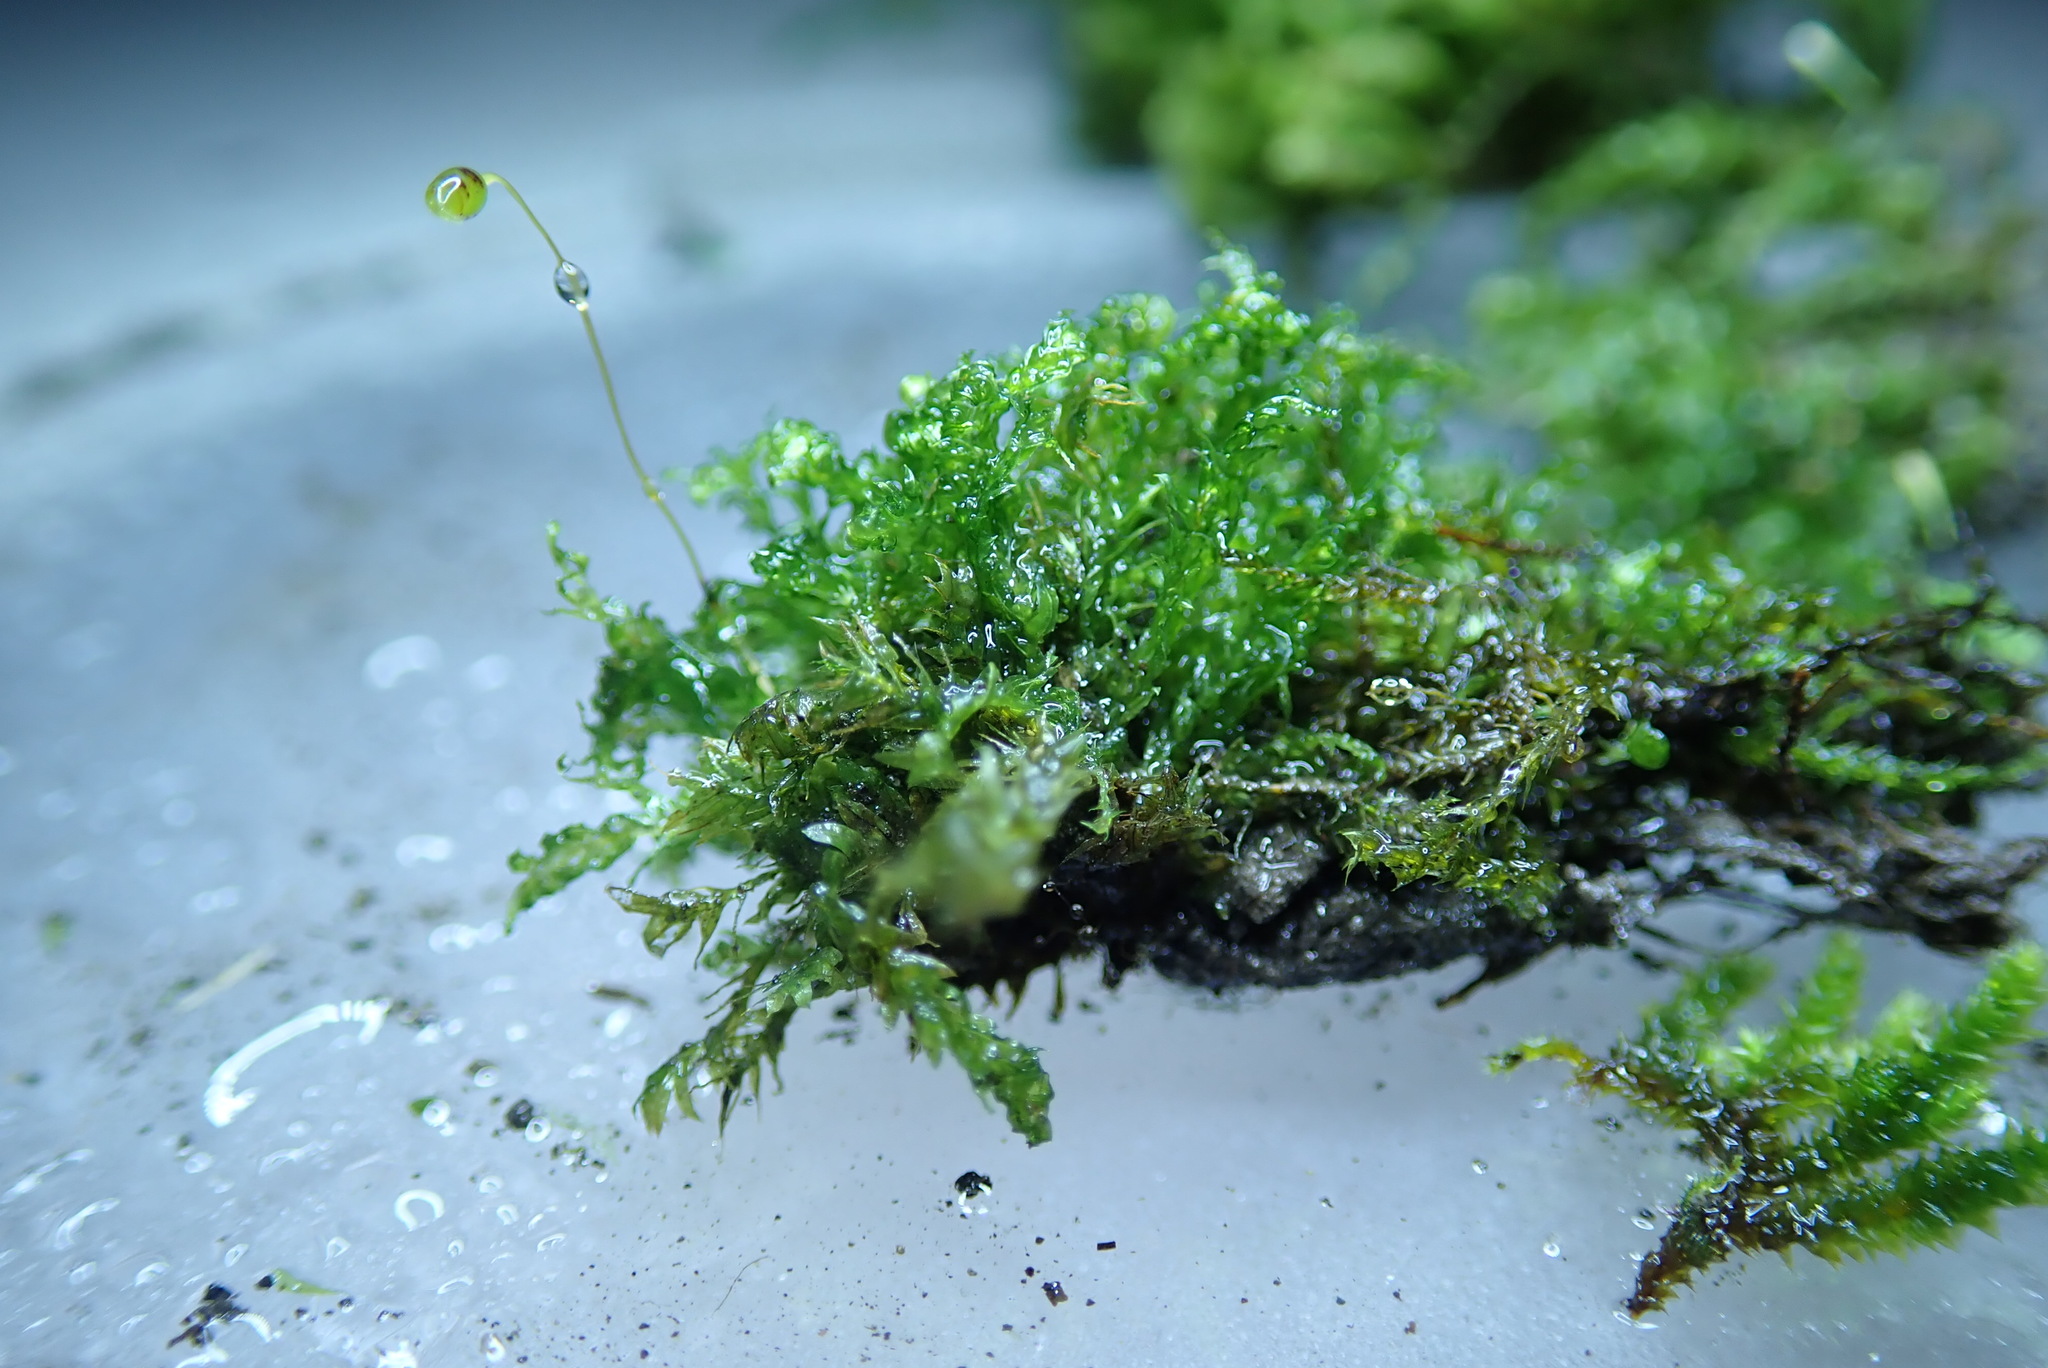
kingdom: Plantae
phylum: Bryophyta
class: Bryopsida
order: Dicranales
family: Fissidentaceae
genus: Fissidens
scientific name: Fissidens taxifolius
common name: Yew-leaved pocket moss
